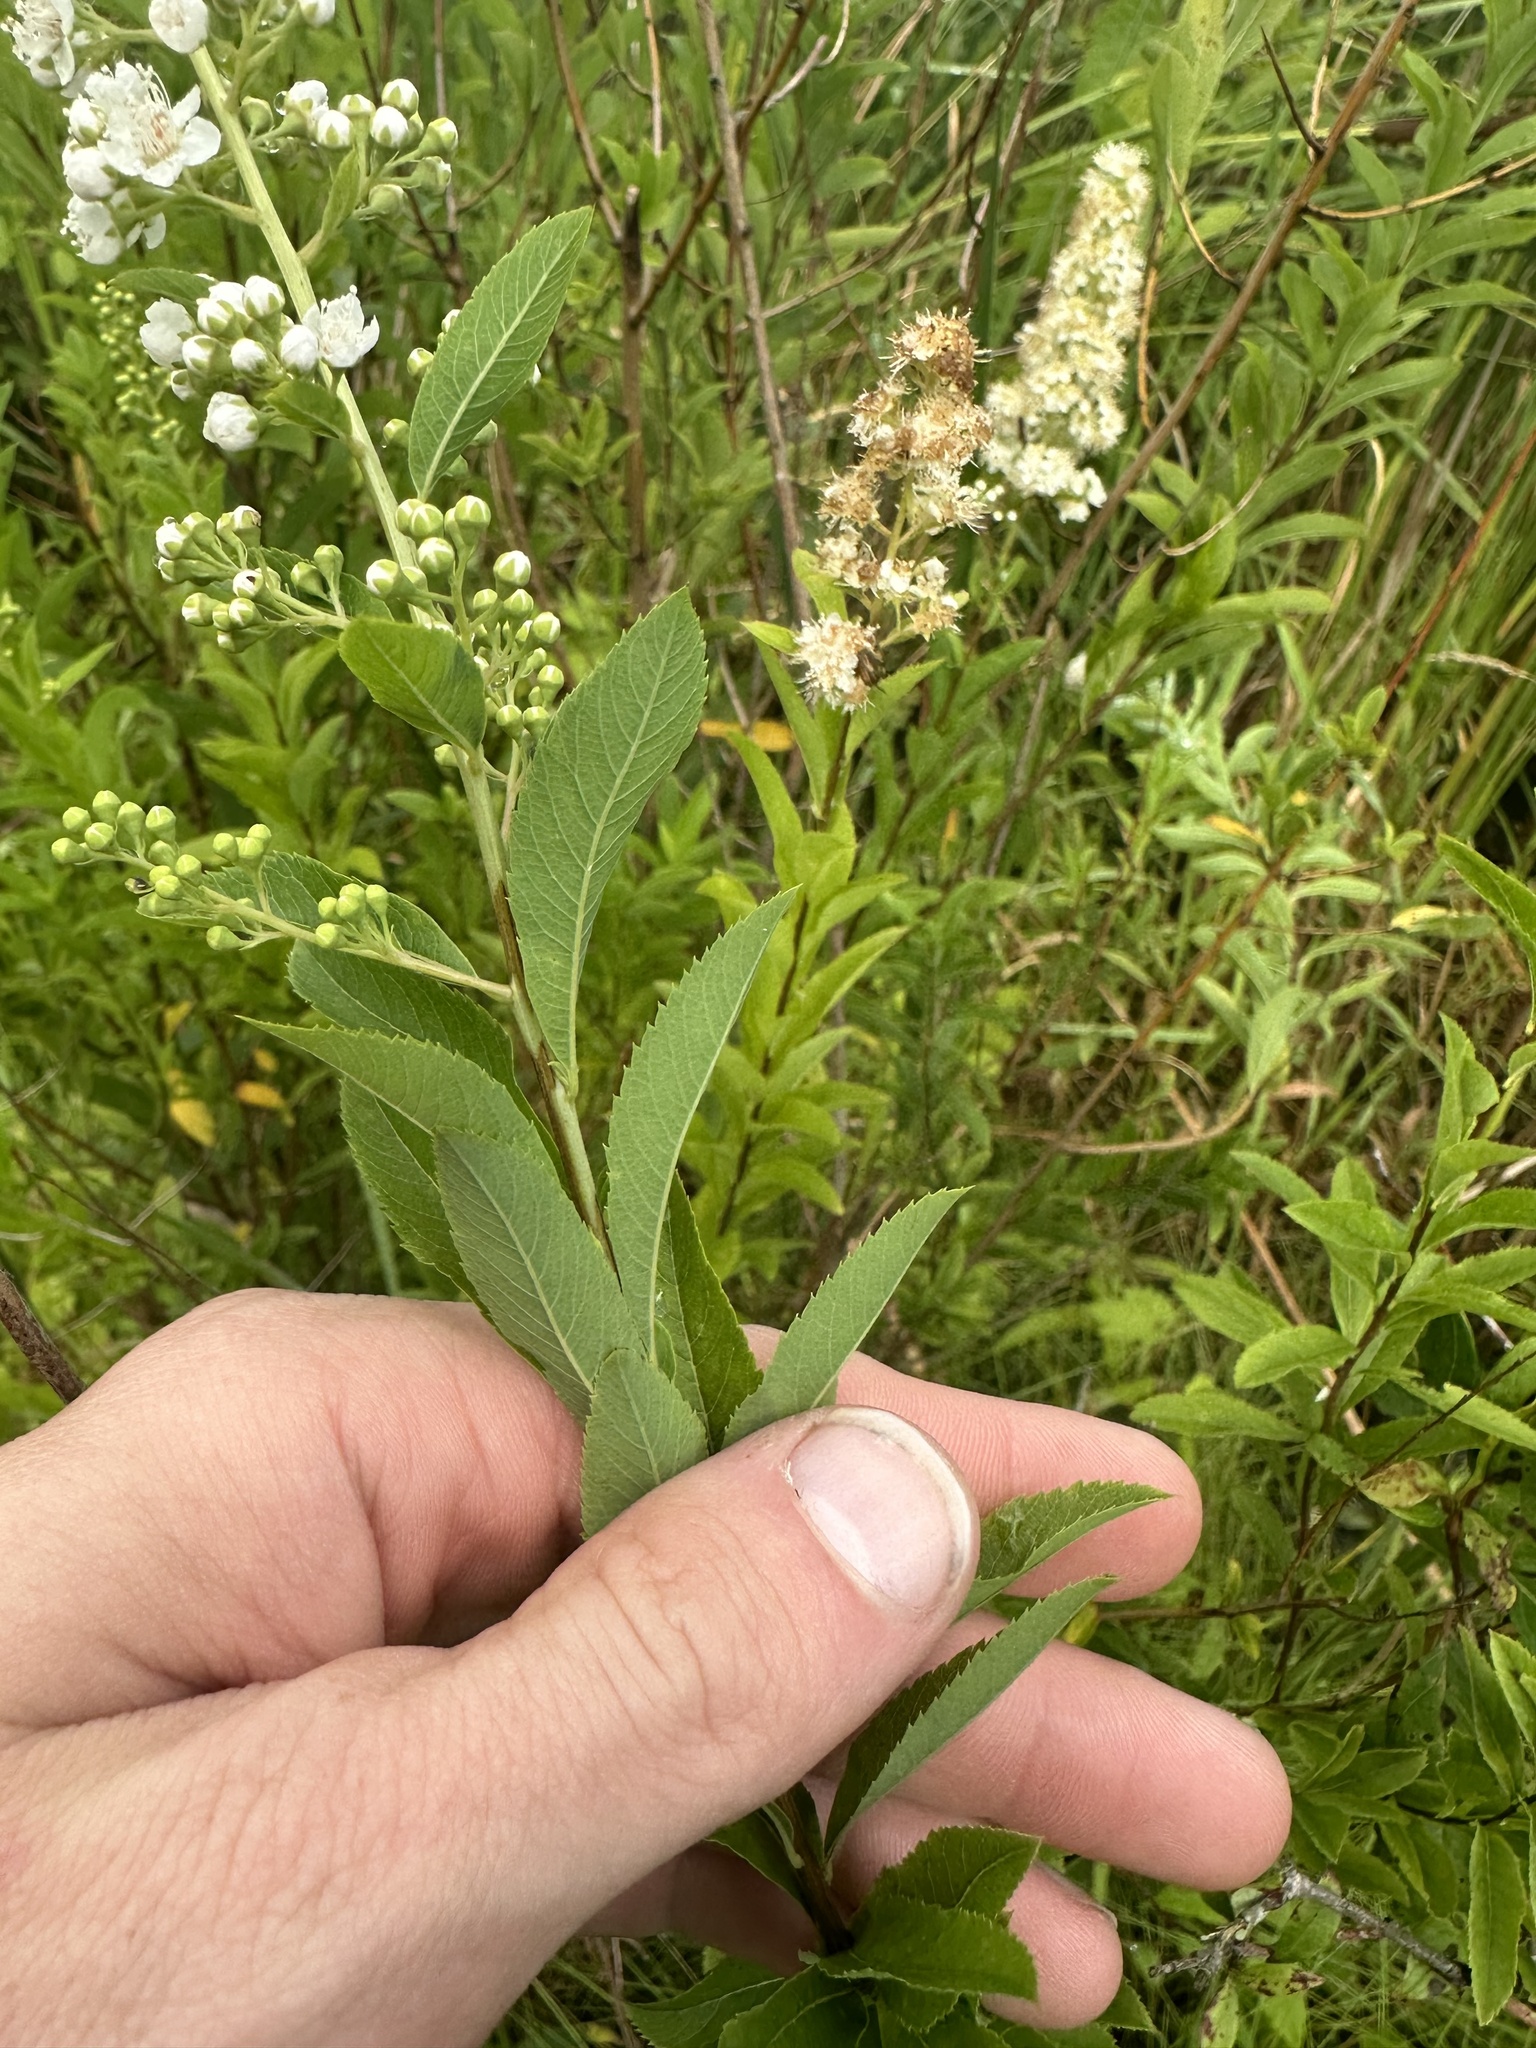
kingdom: Plantae
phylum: Tracheophyta
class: Magnoliopsida
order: Rosales
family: Rosaceae
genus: Spiraea
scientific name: Spiraea alba
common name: Pale bridewort
